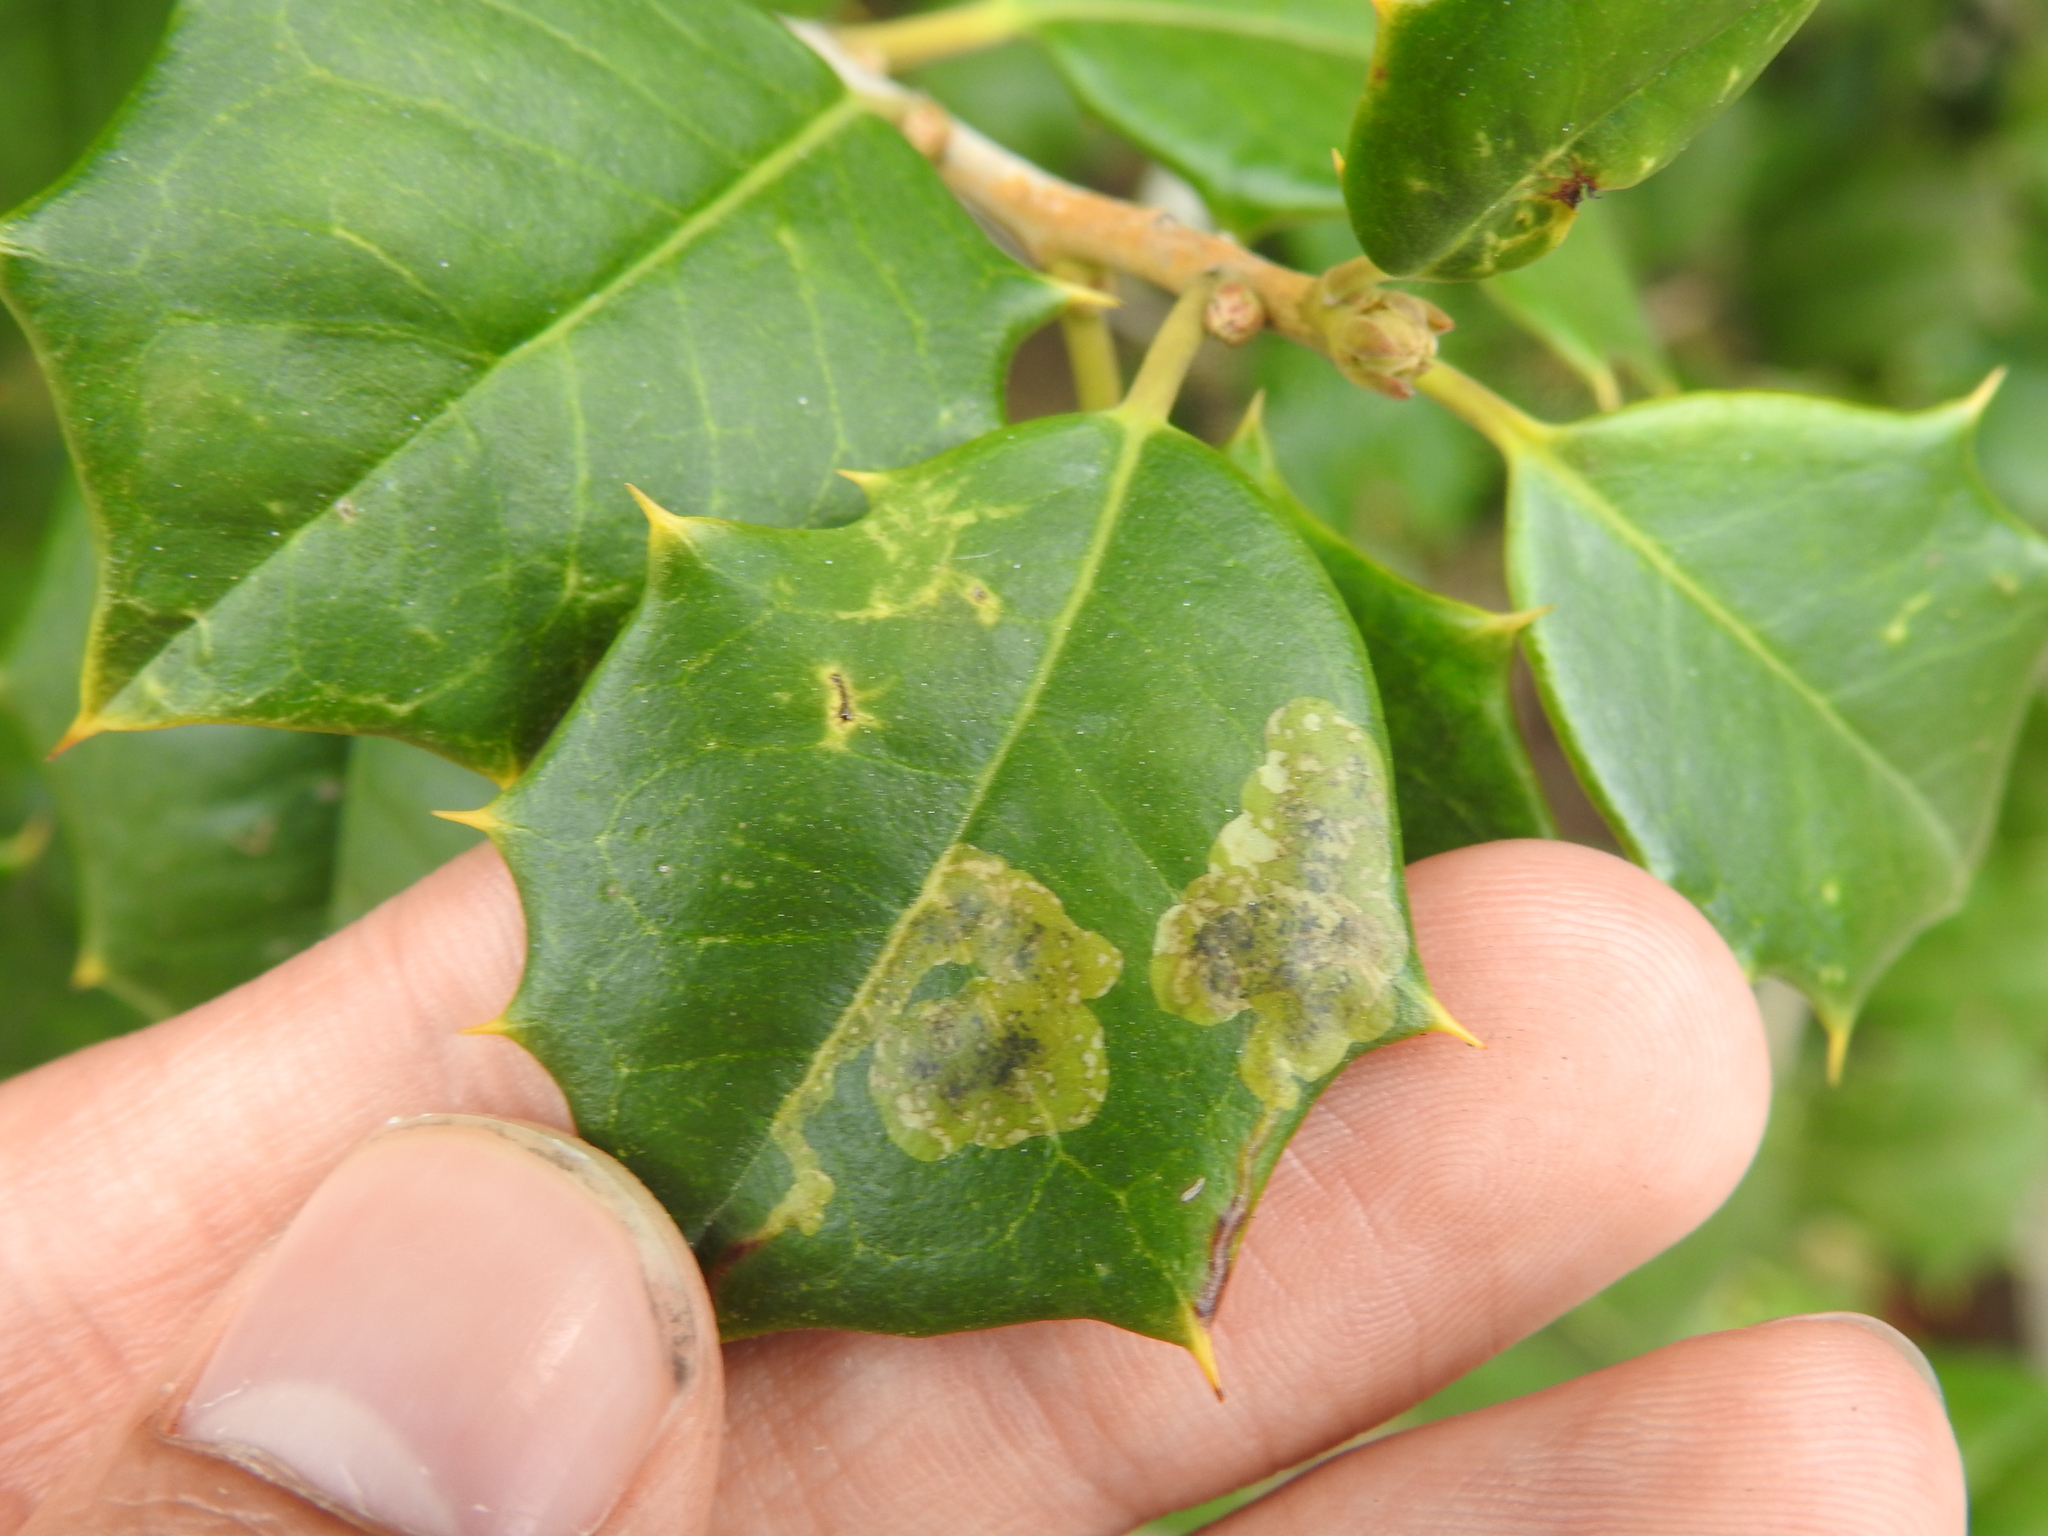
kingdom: Animalia
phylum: Arthropoda
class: Insecta
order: Diptera
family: Agromyzidae
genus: Phytomyza
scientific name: Phytomyza ilicicola
